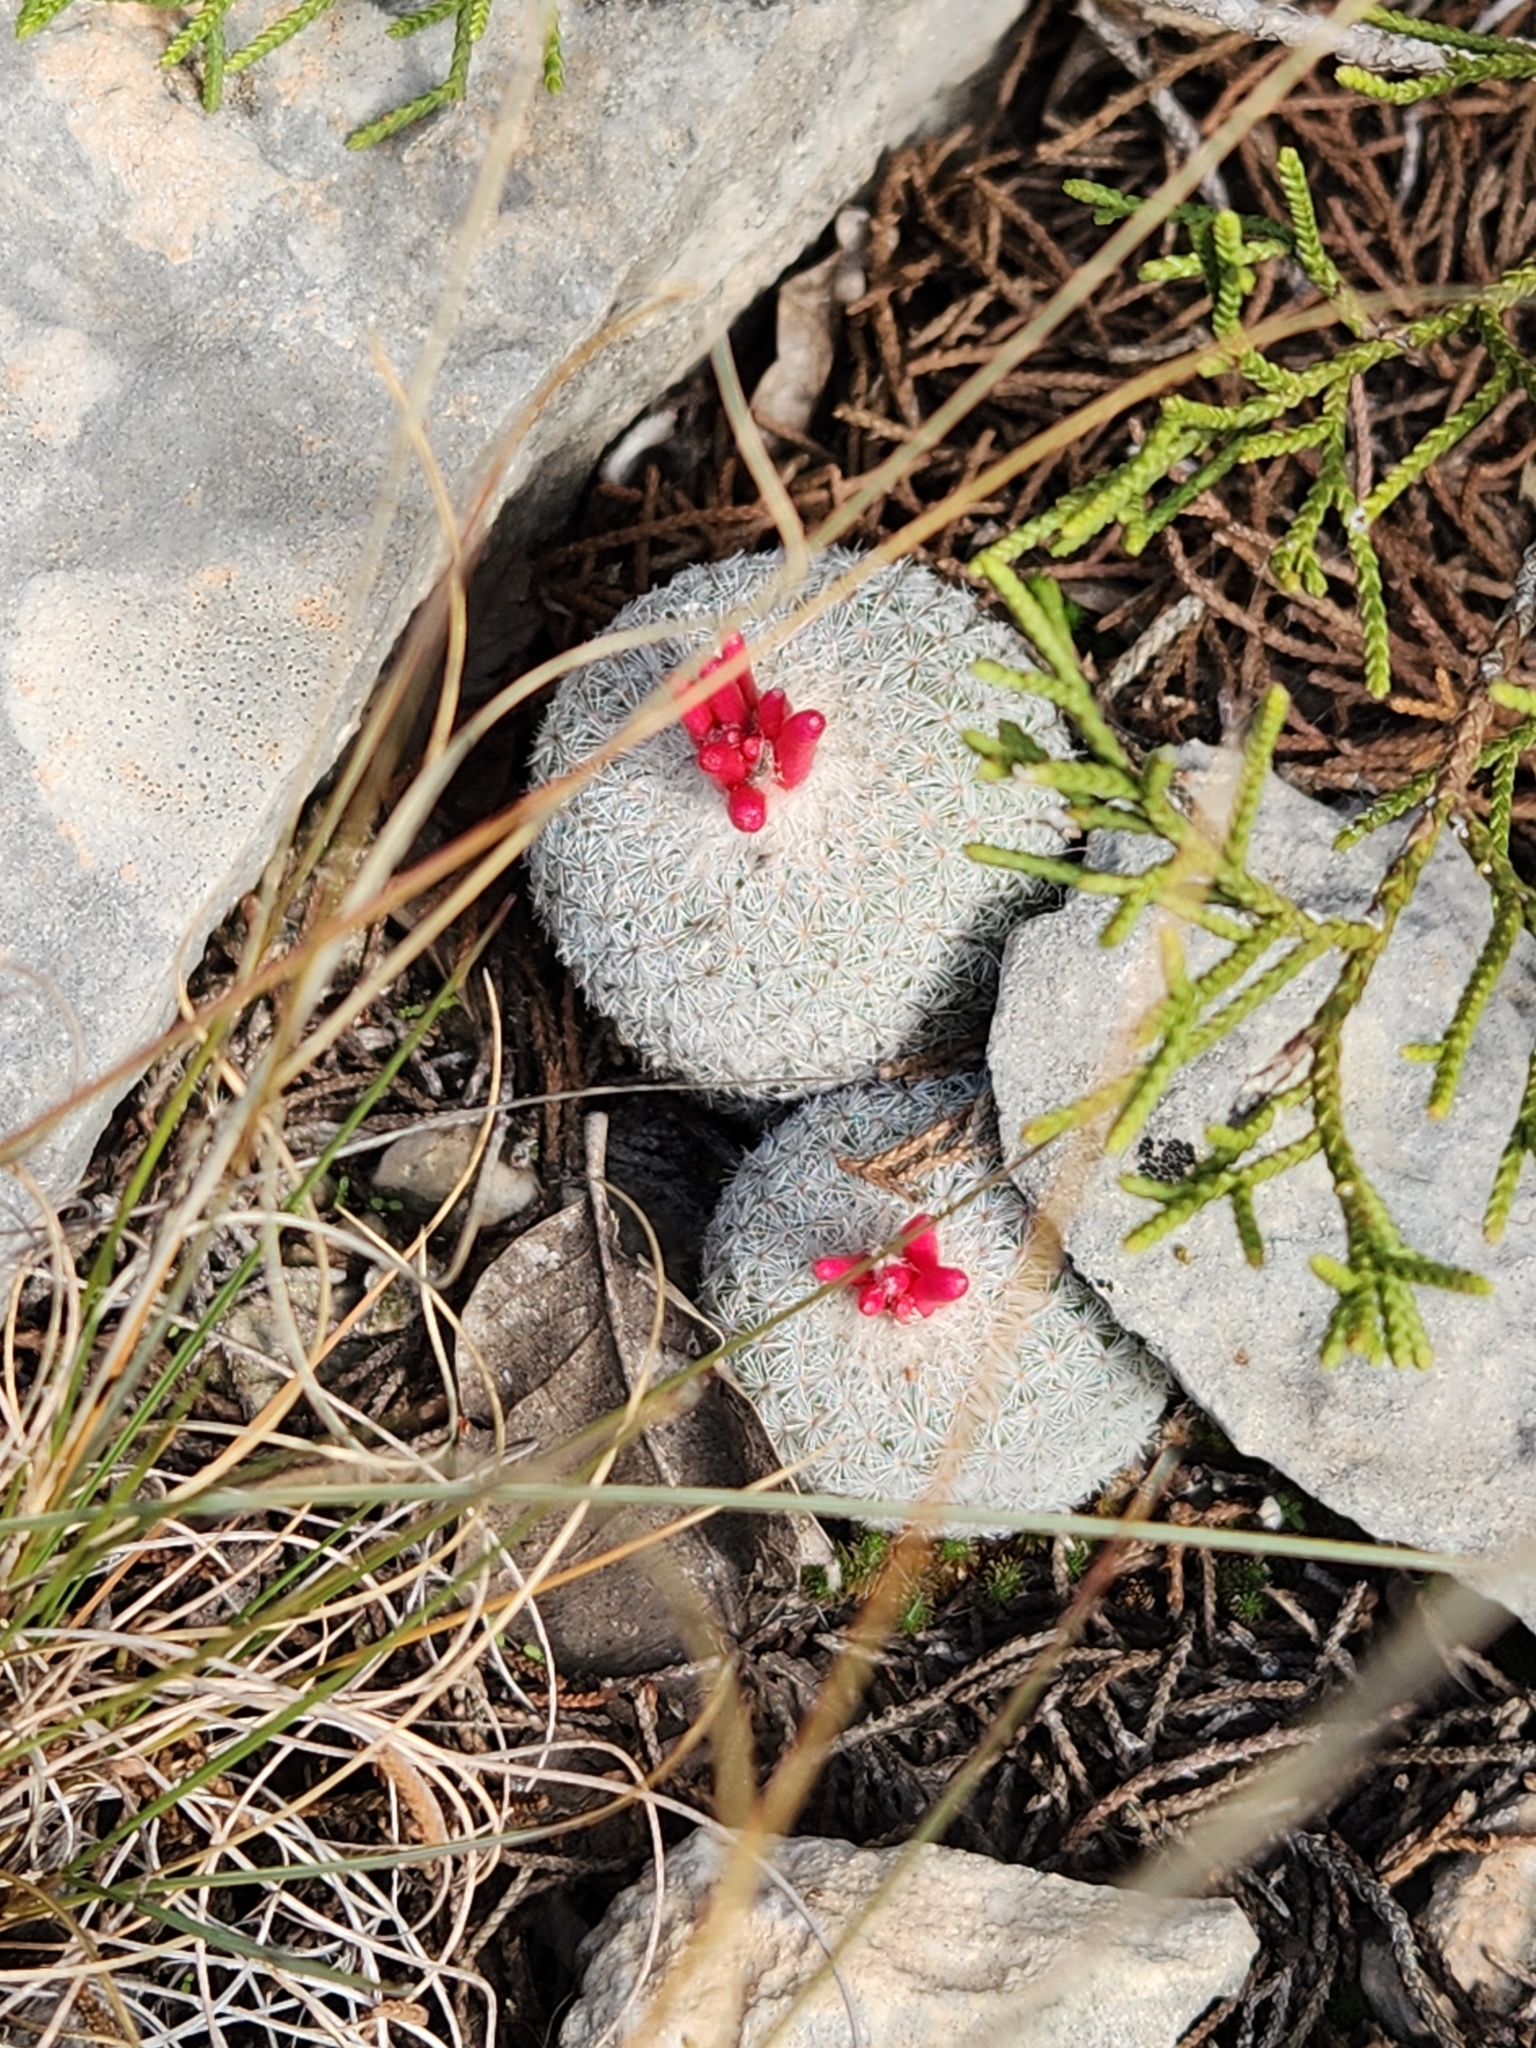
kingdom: Plantae
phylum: Tracheophyta
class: Magnoliopsida
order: Caryophyllales
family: Cactaceae
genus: Epithelantha
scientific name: Epithelantha micromeris
